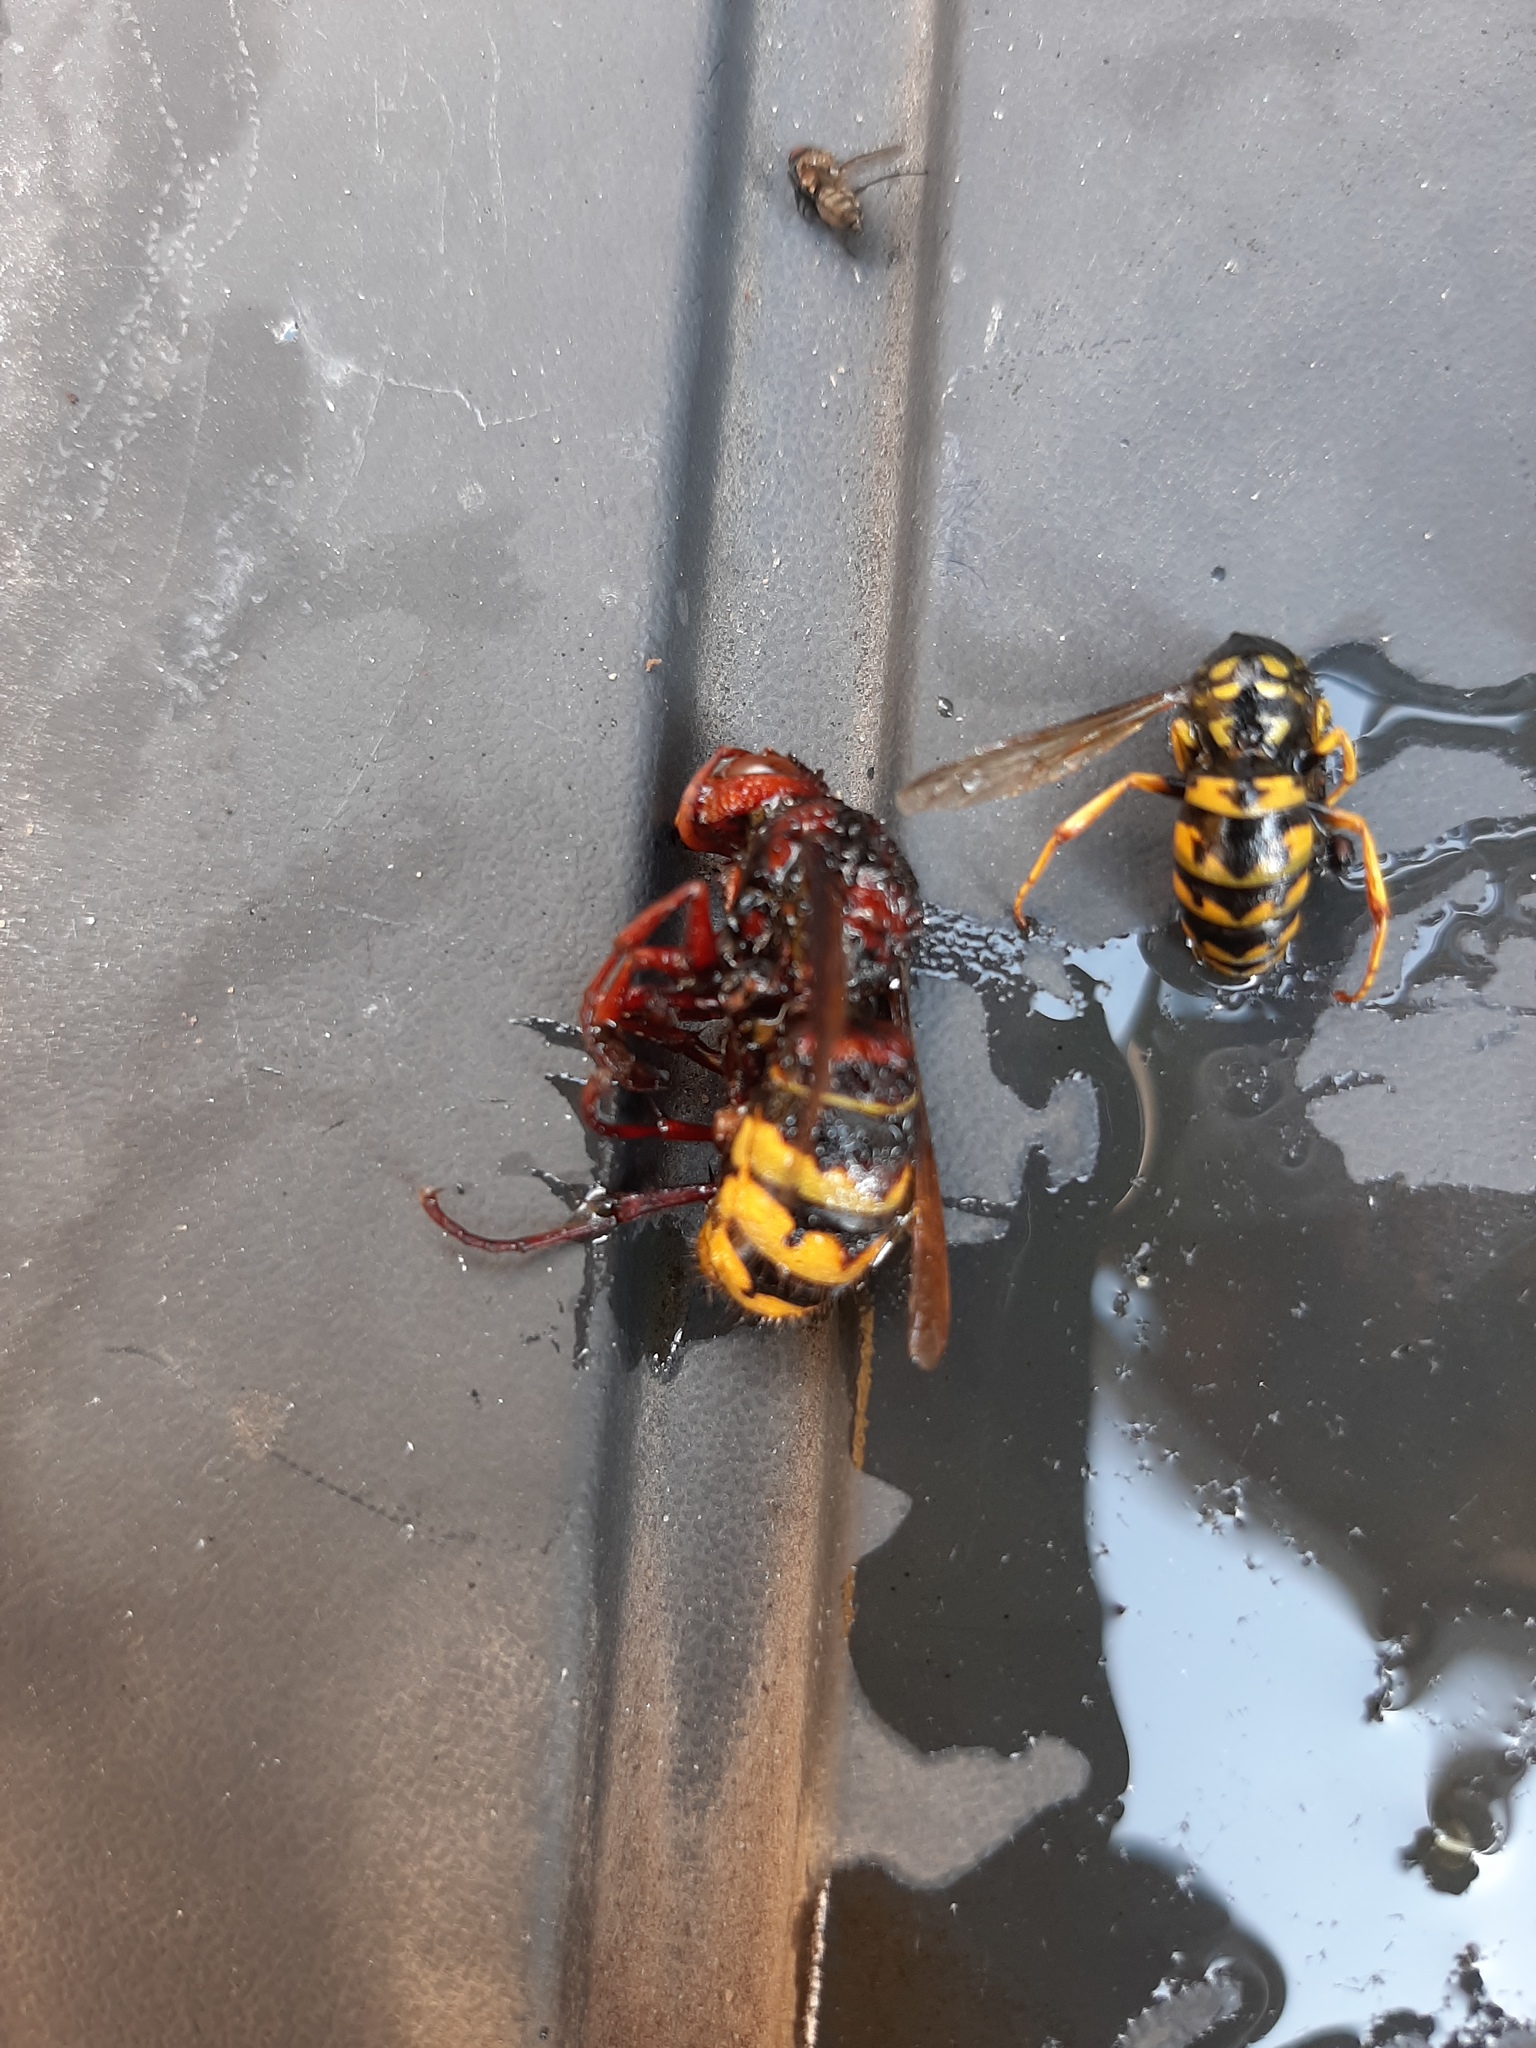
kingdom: Animalia
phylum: Arthropoda
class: Insecta
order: Hymenoptera
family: Vespidae
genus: Vespa
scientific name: Vespa crabro
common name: Hornet
